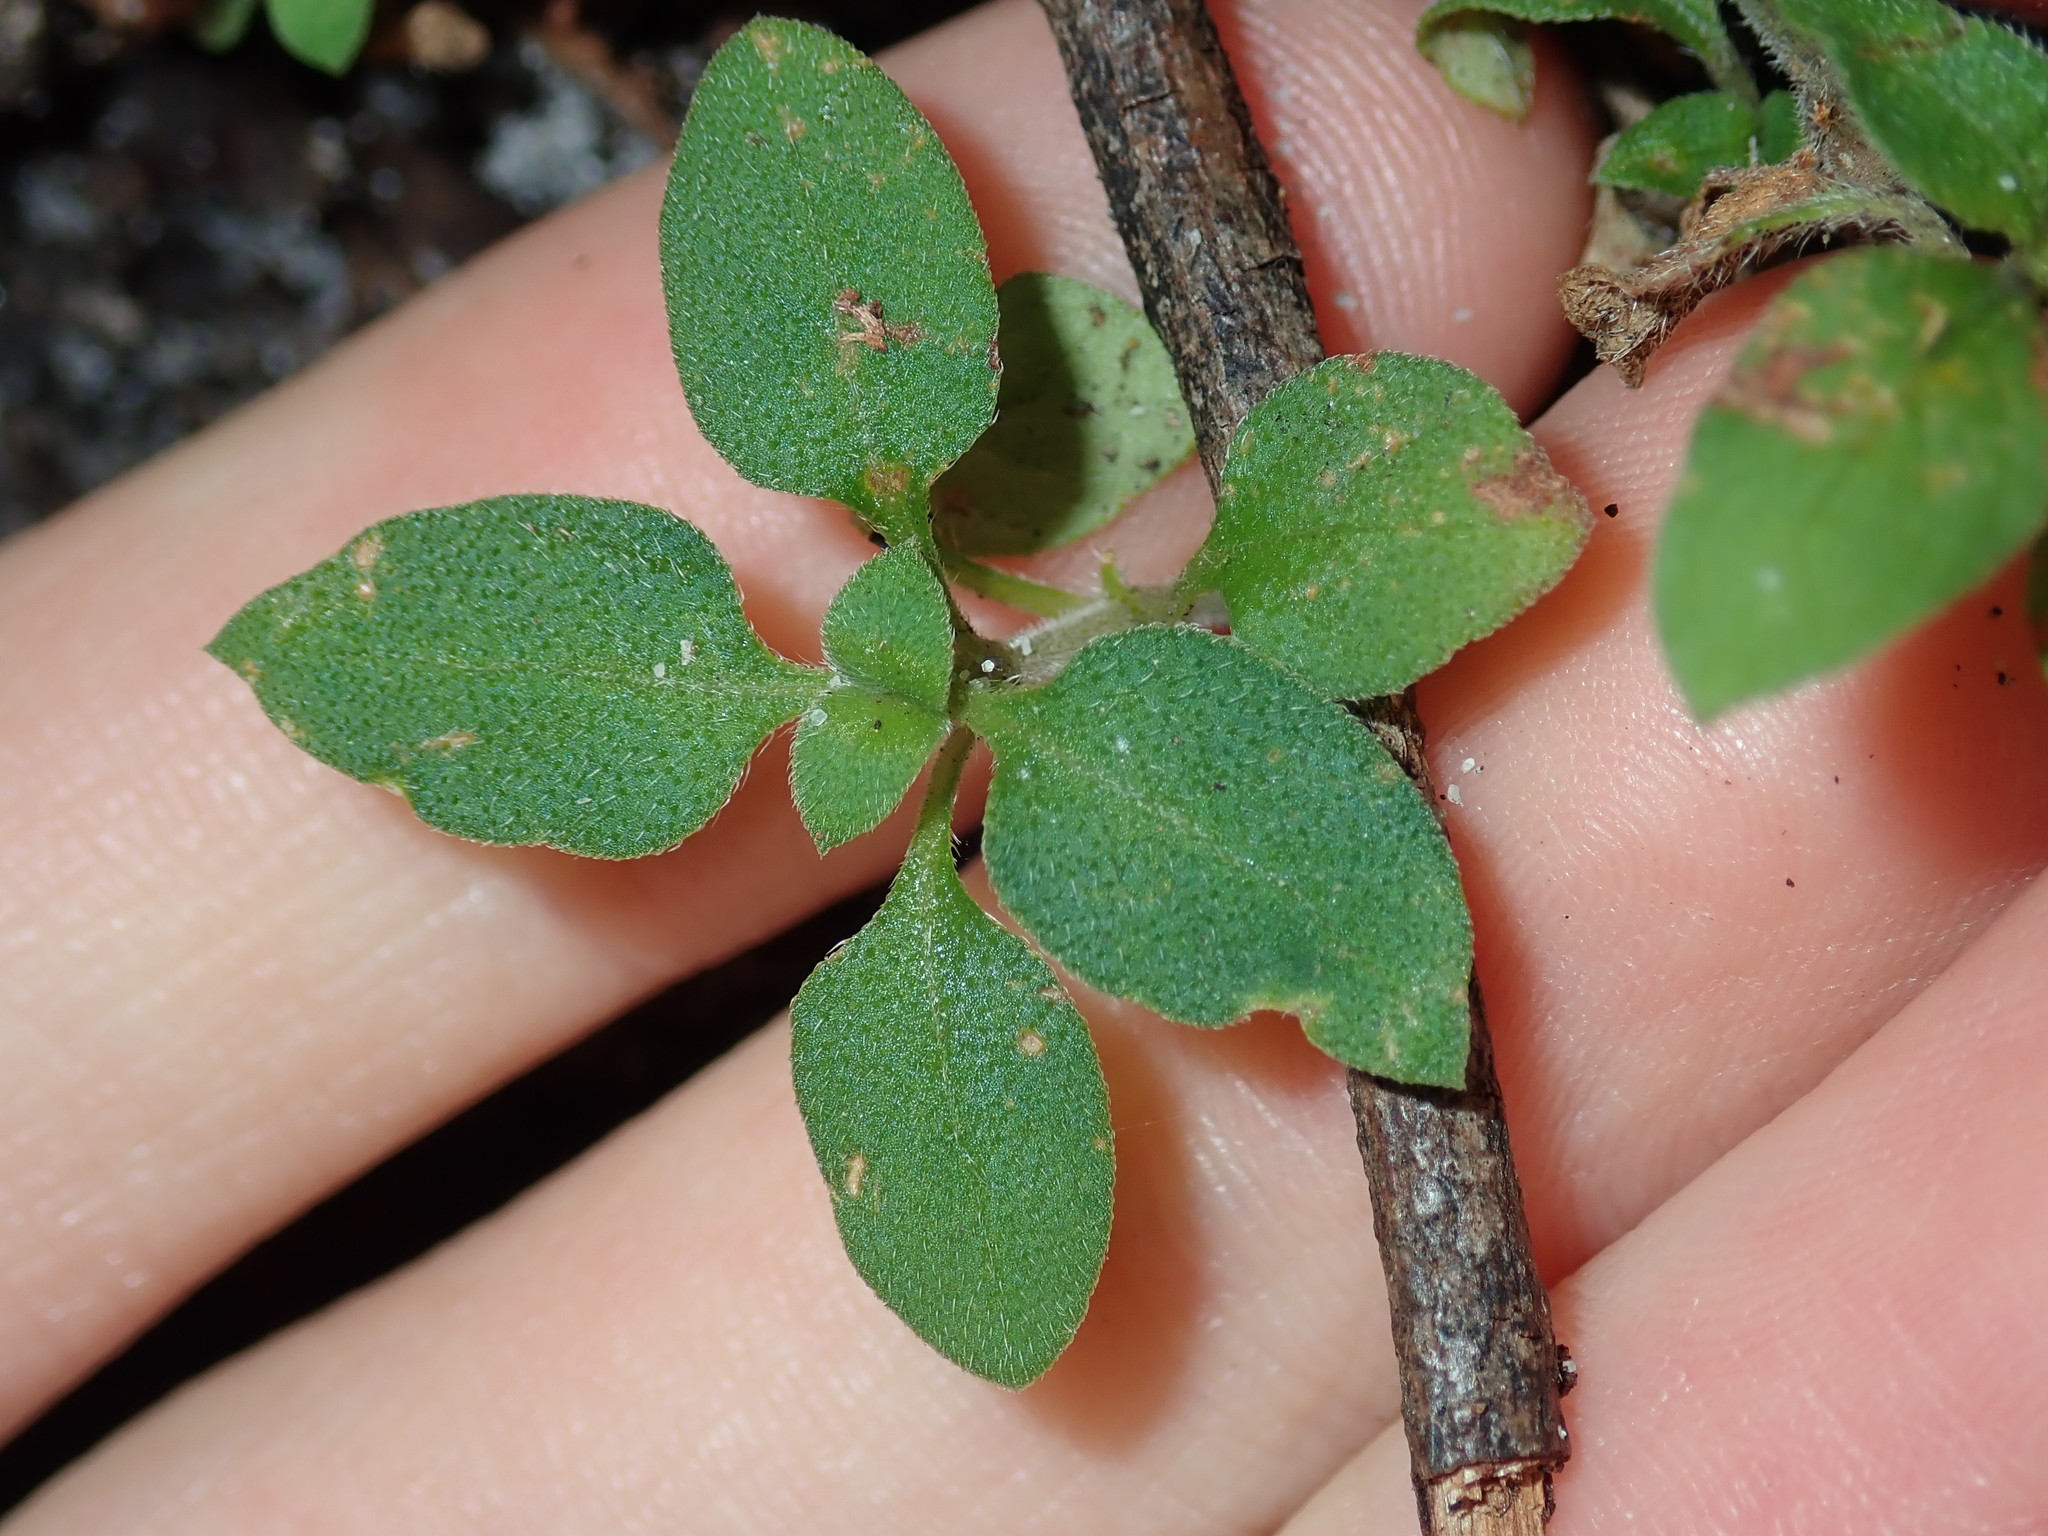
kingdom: Plantae
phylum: Tracheophyta
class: Magnoliopsida
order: Gentianales
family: Rubiaceae
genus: Pomax
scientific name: Pomax umbellata
